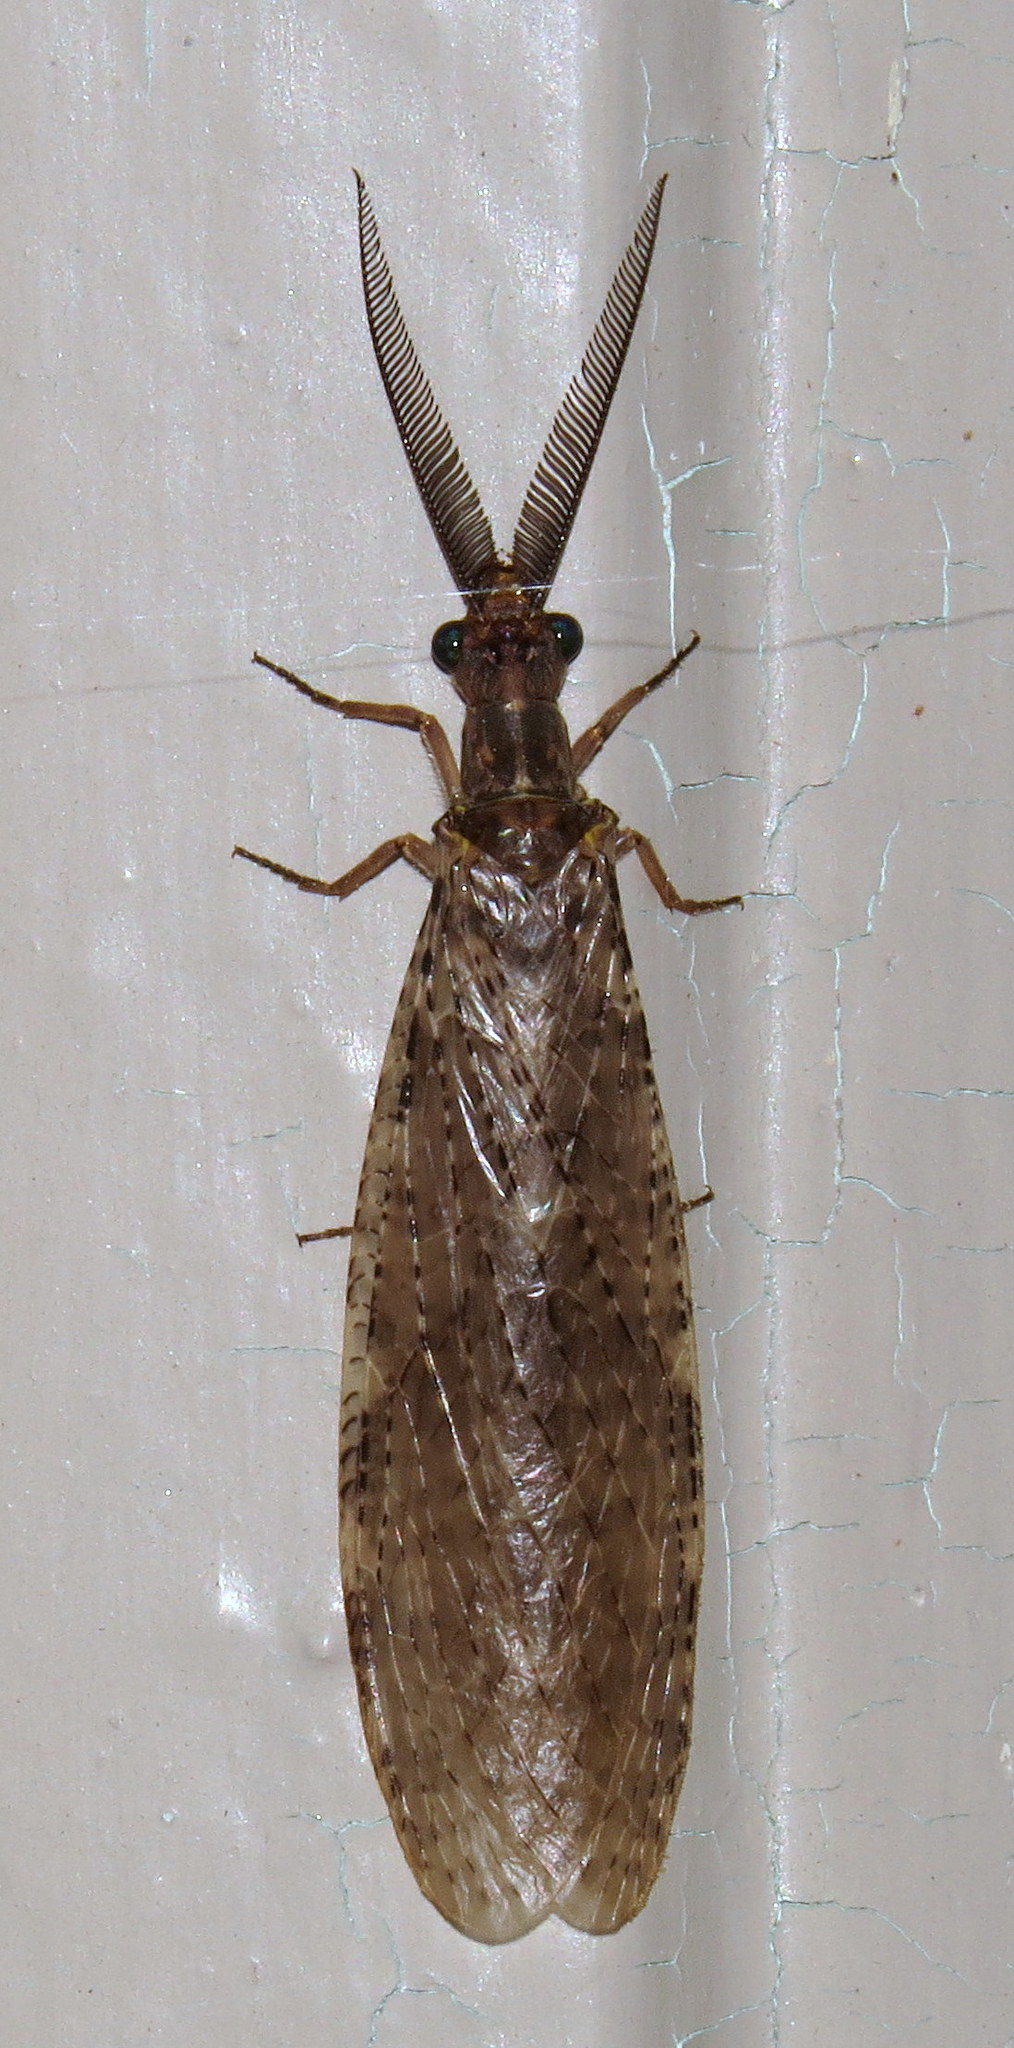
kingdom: Animalia
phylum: Arthropoda
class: Insecta
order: Megaloptera
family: Corydalidae
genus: Chauliodes
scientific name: Chauliodes pectinicornis
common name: Summer fishfly
